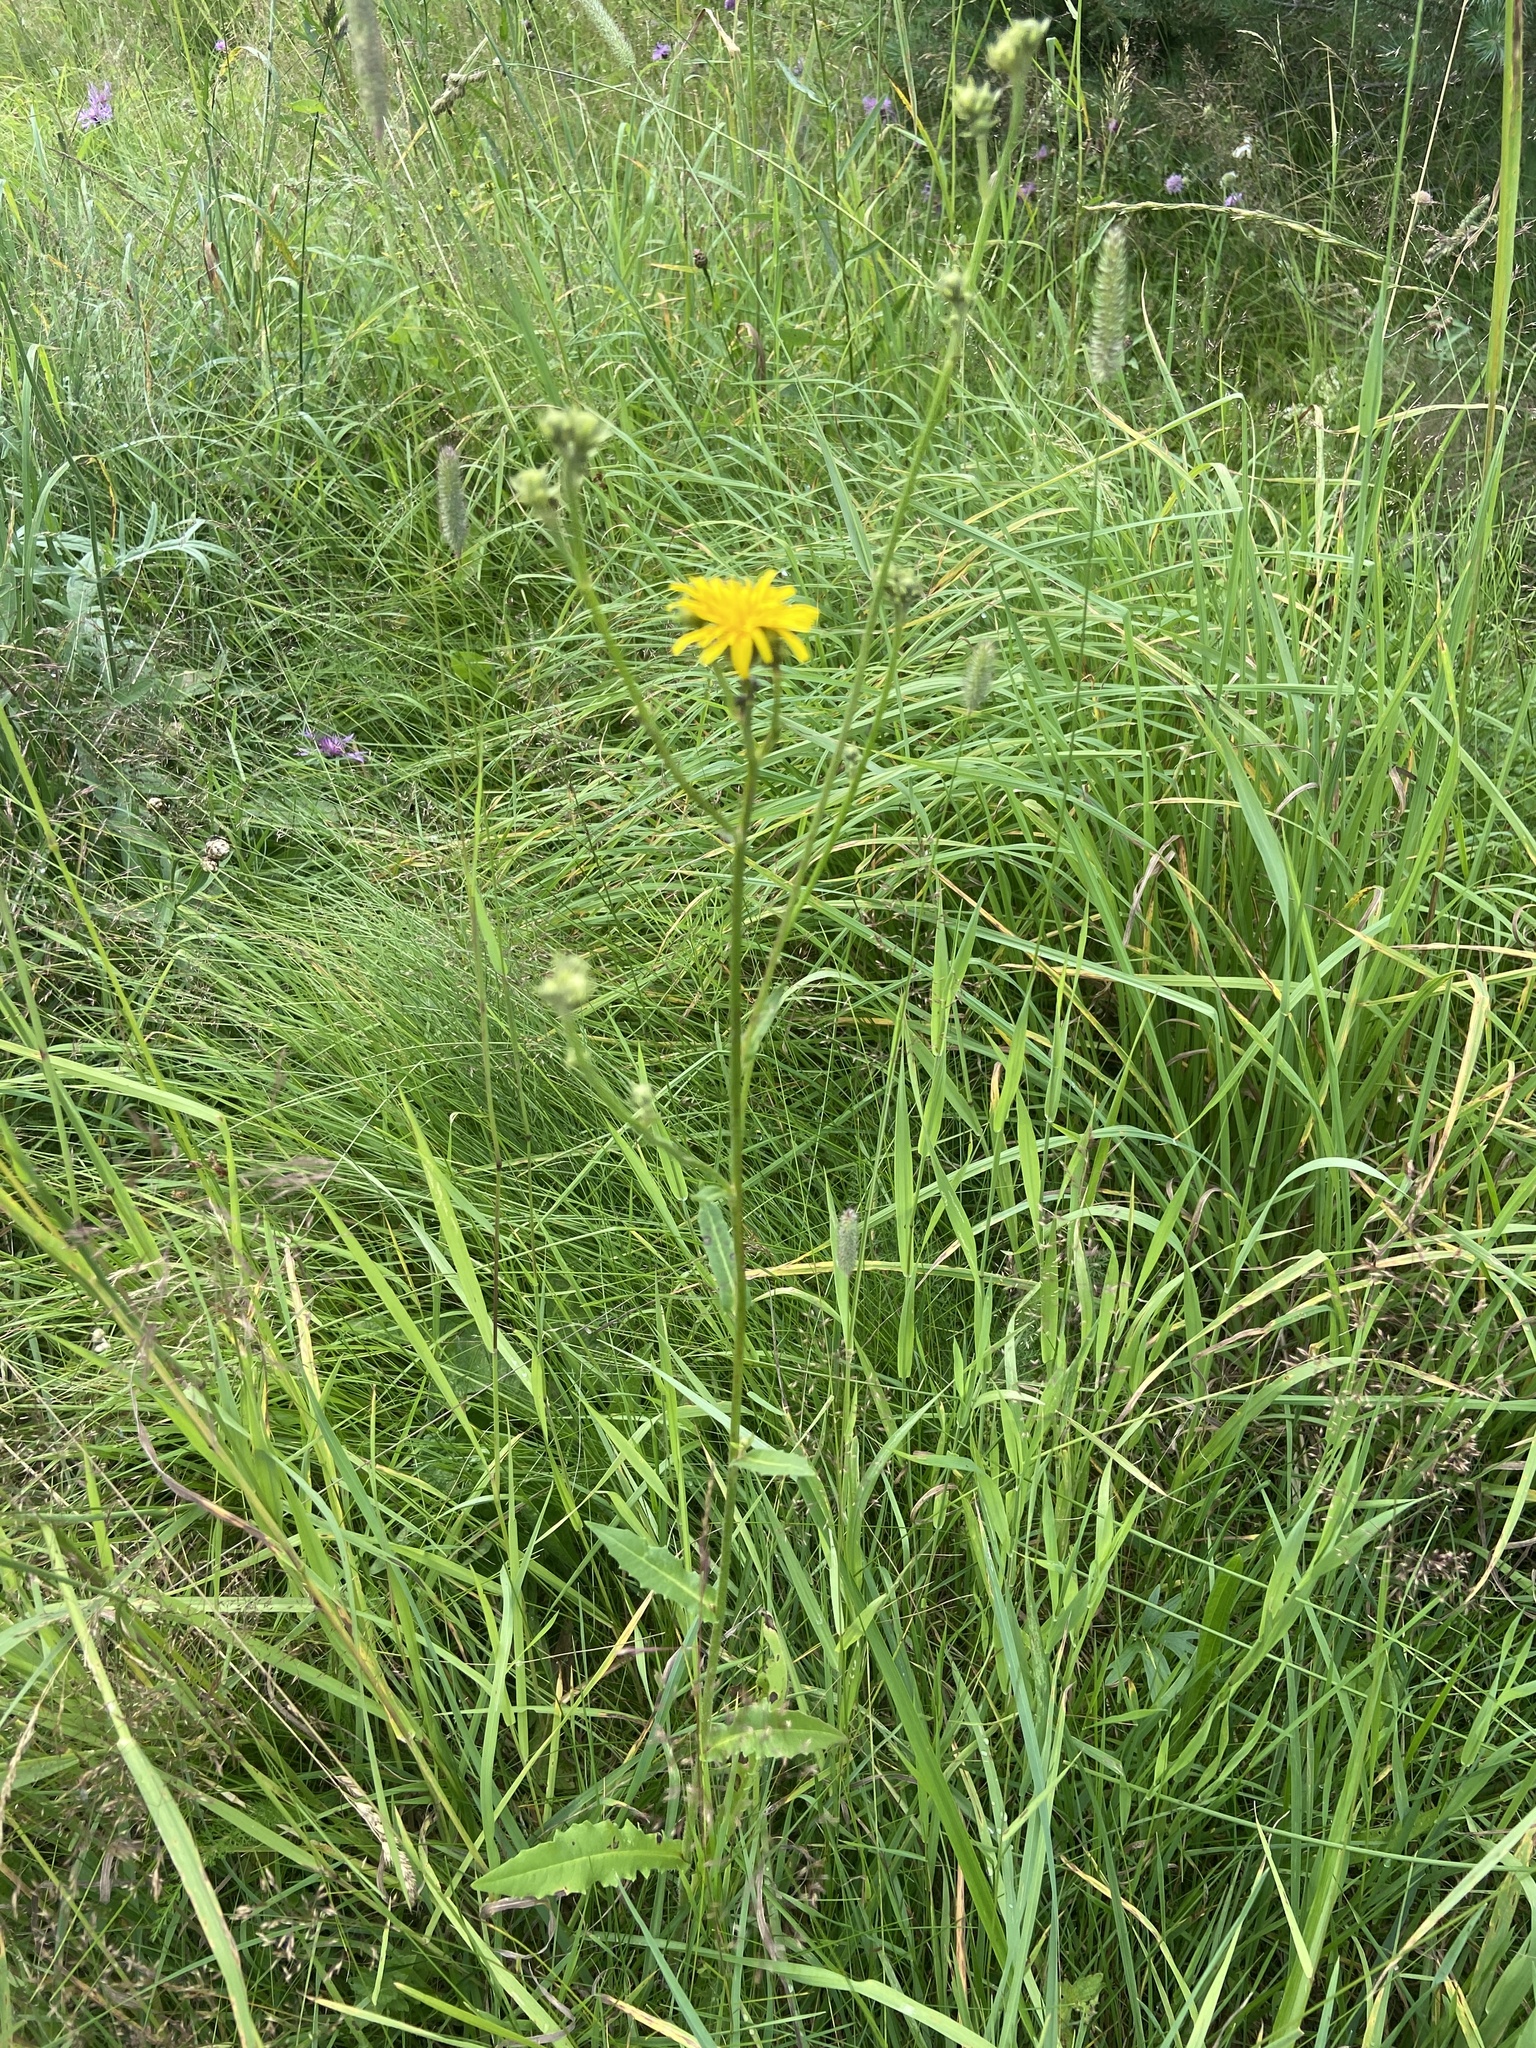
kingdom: Plantae
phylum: Tracheophyta
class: Magnoliopsida
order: Asterales
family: Asteraceae
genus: Picris
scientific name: Picris hieracioides
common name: Hawkweed oxtongue
